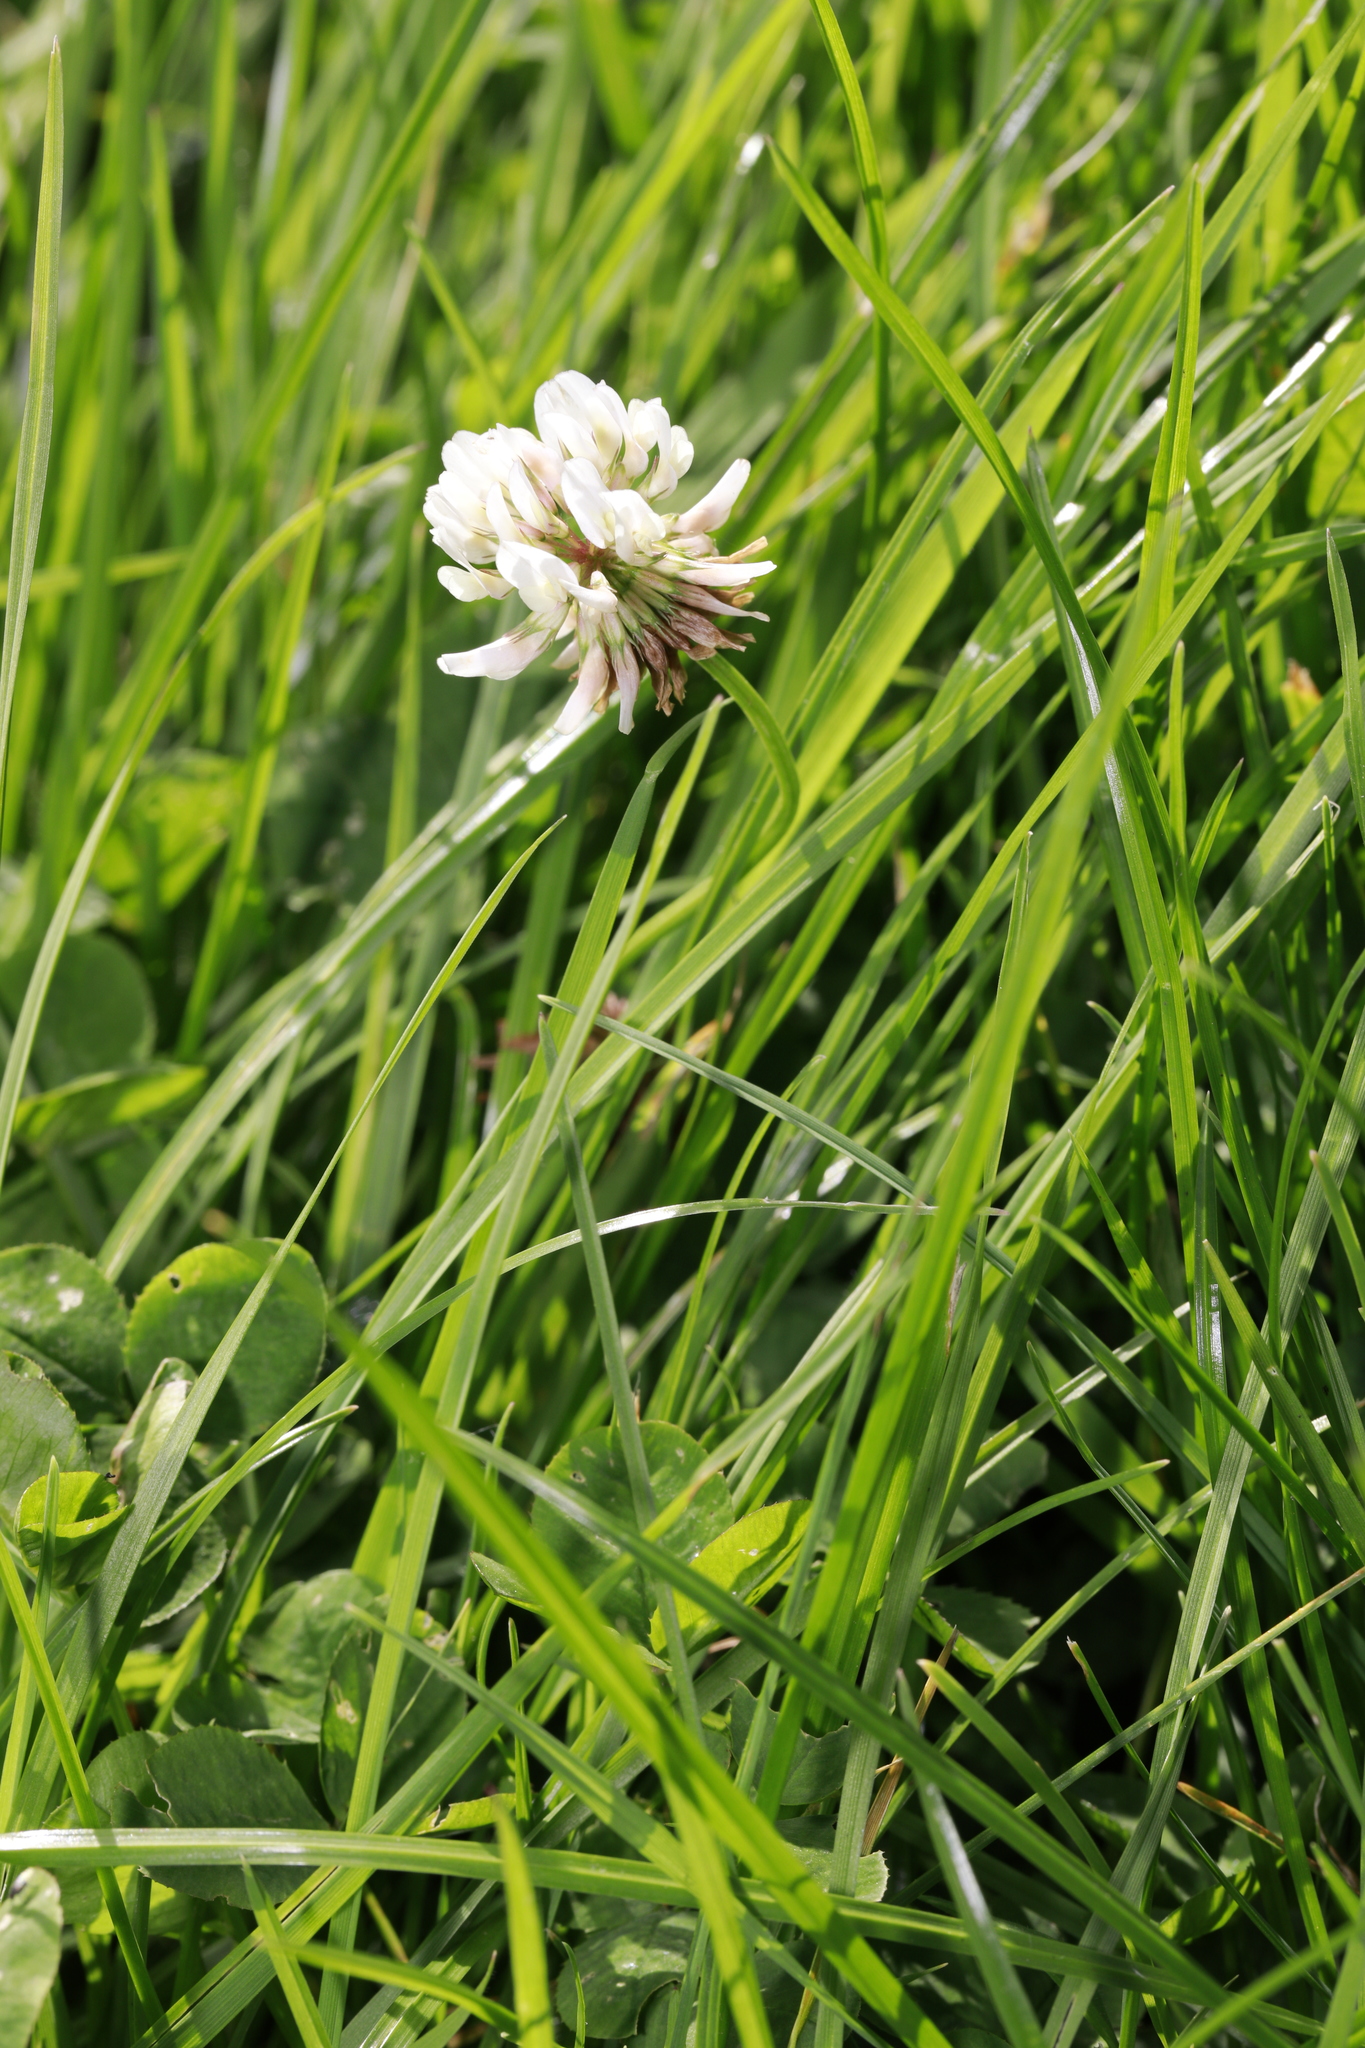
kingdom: Plantae
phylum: Tracheophyta
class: Magnoliopsida
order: Fabales
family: Fabaceae
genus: Trifolium
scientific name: Trifolium repens
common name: White clover
